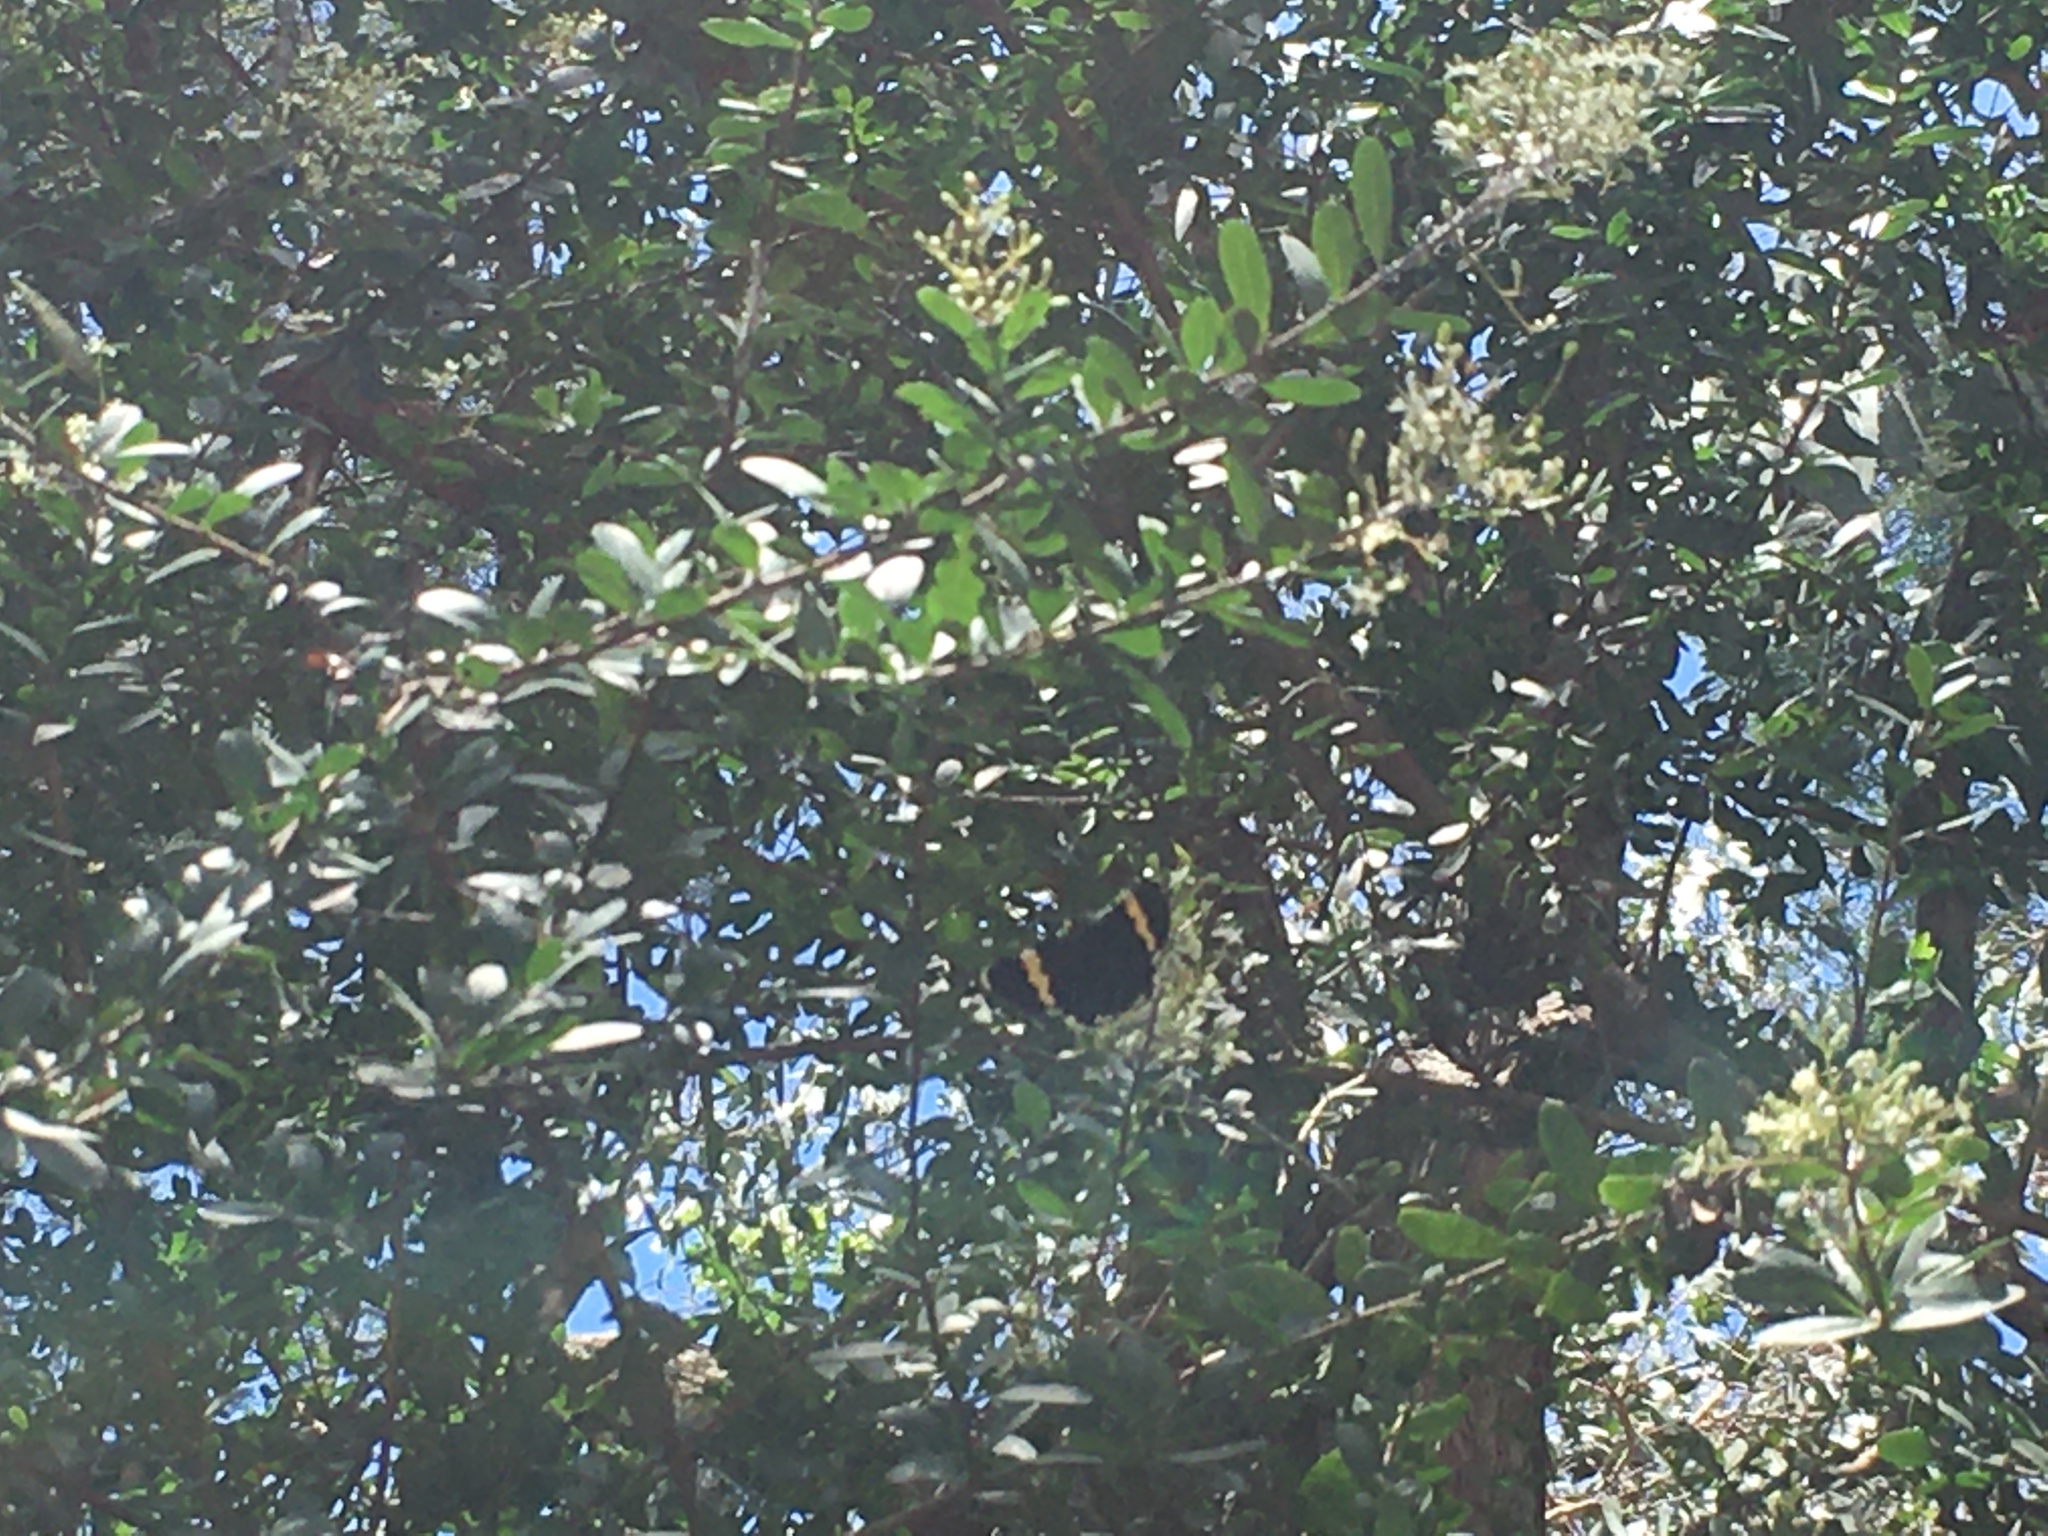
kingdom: Animalia
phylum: Arthropoda
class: Insecta
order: Lepidoptera
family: Noctuidae
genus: Eutrichopidia
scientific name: Eutrichopidia latinus
